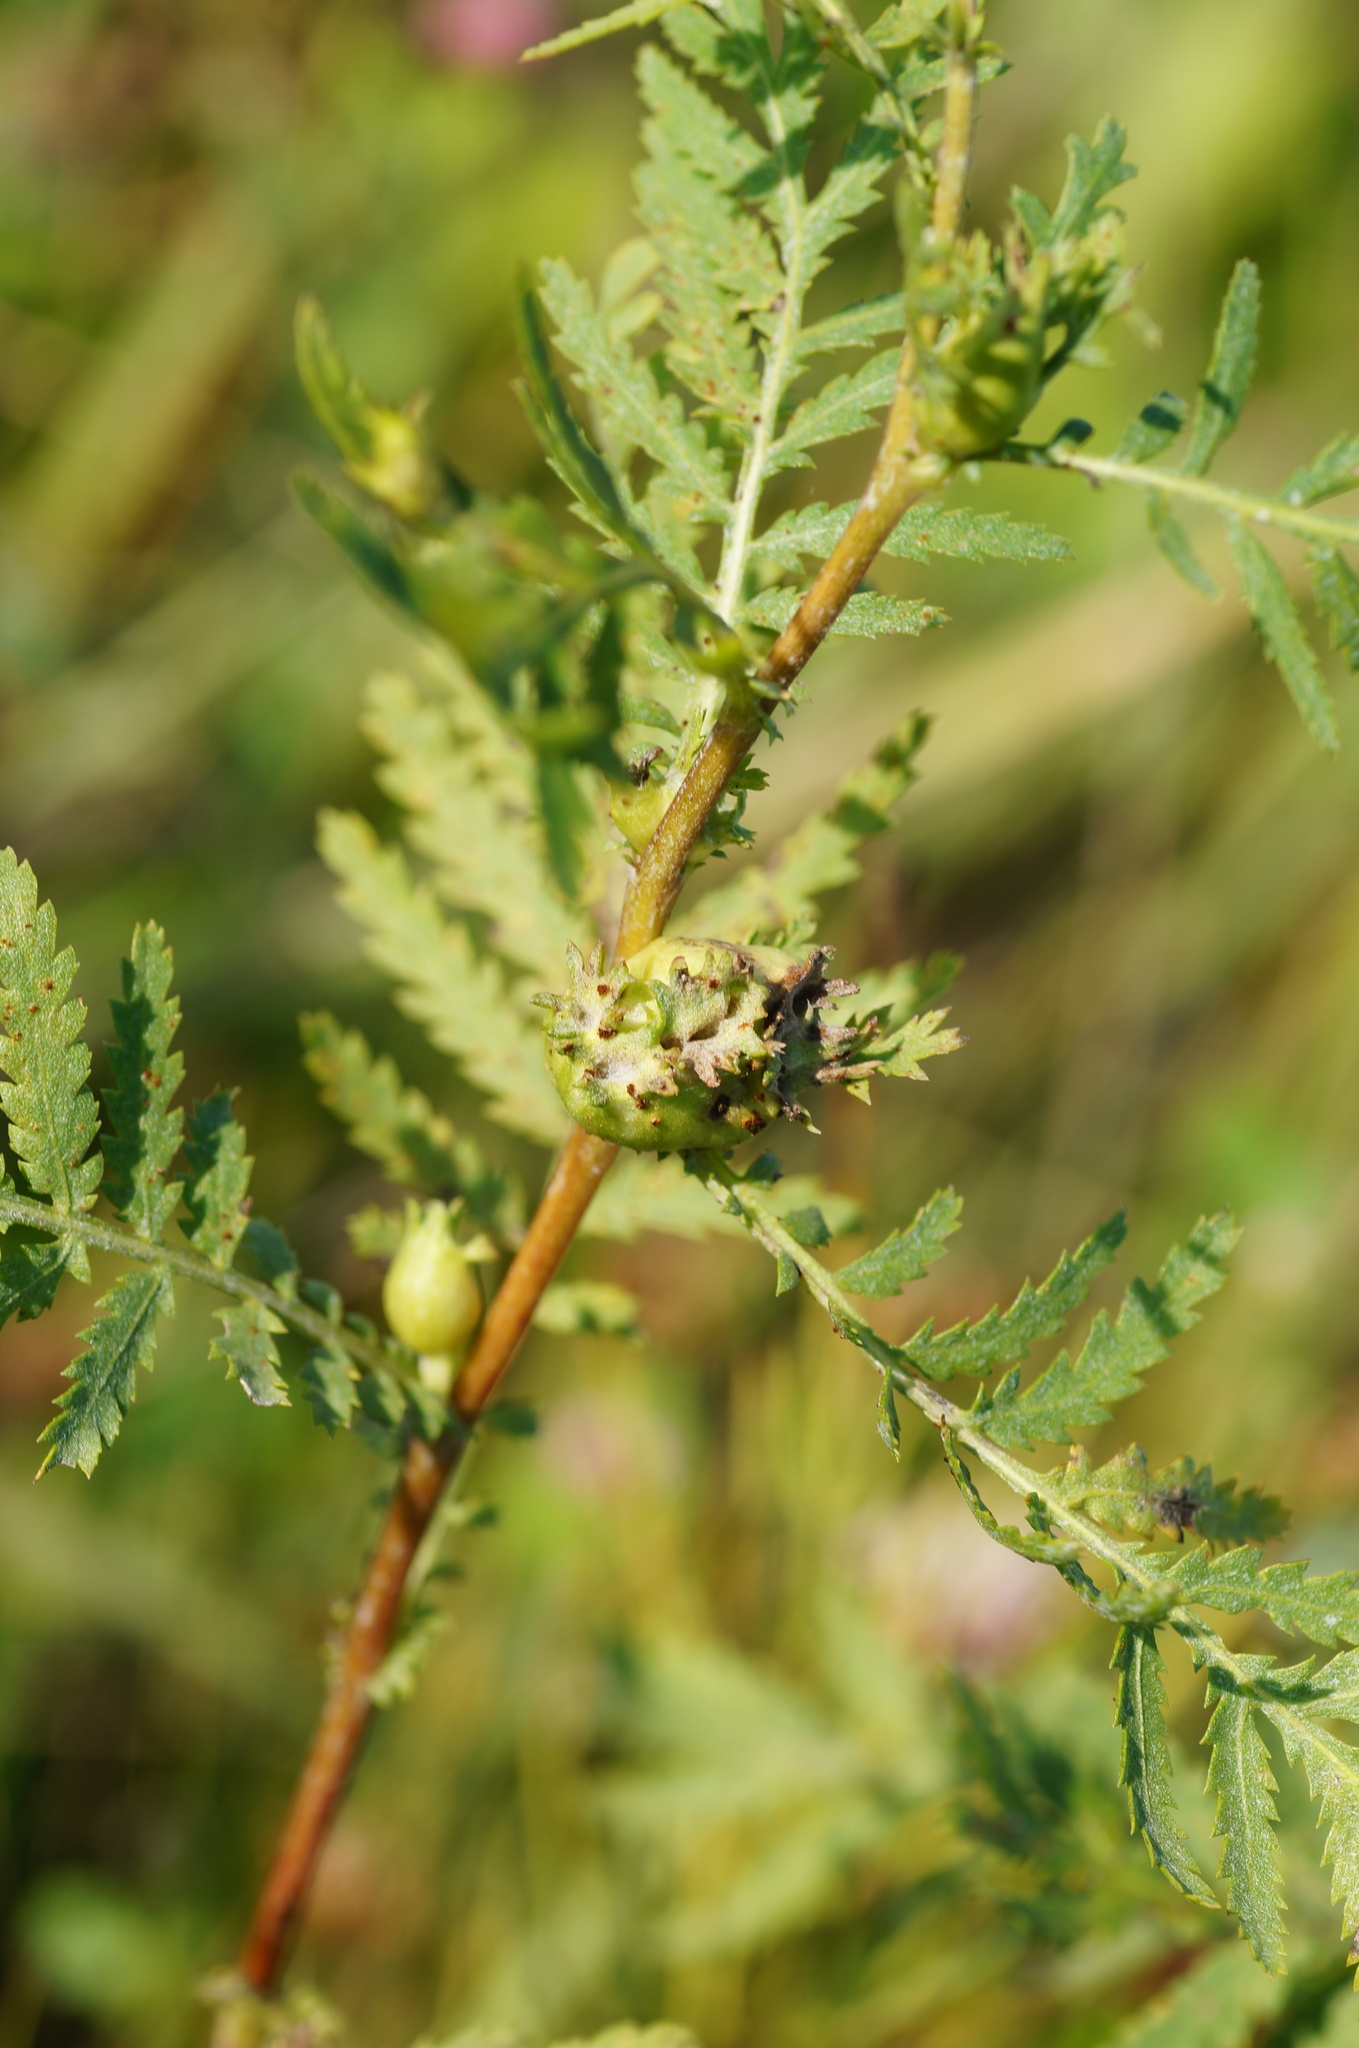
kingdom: Animalia
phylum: Arthropoda
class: Insecta
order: Diptera
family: Cecidomyiidae
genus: Rhopalomyia
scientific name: Rhopalomyia tanaceticolus
